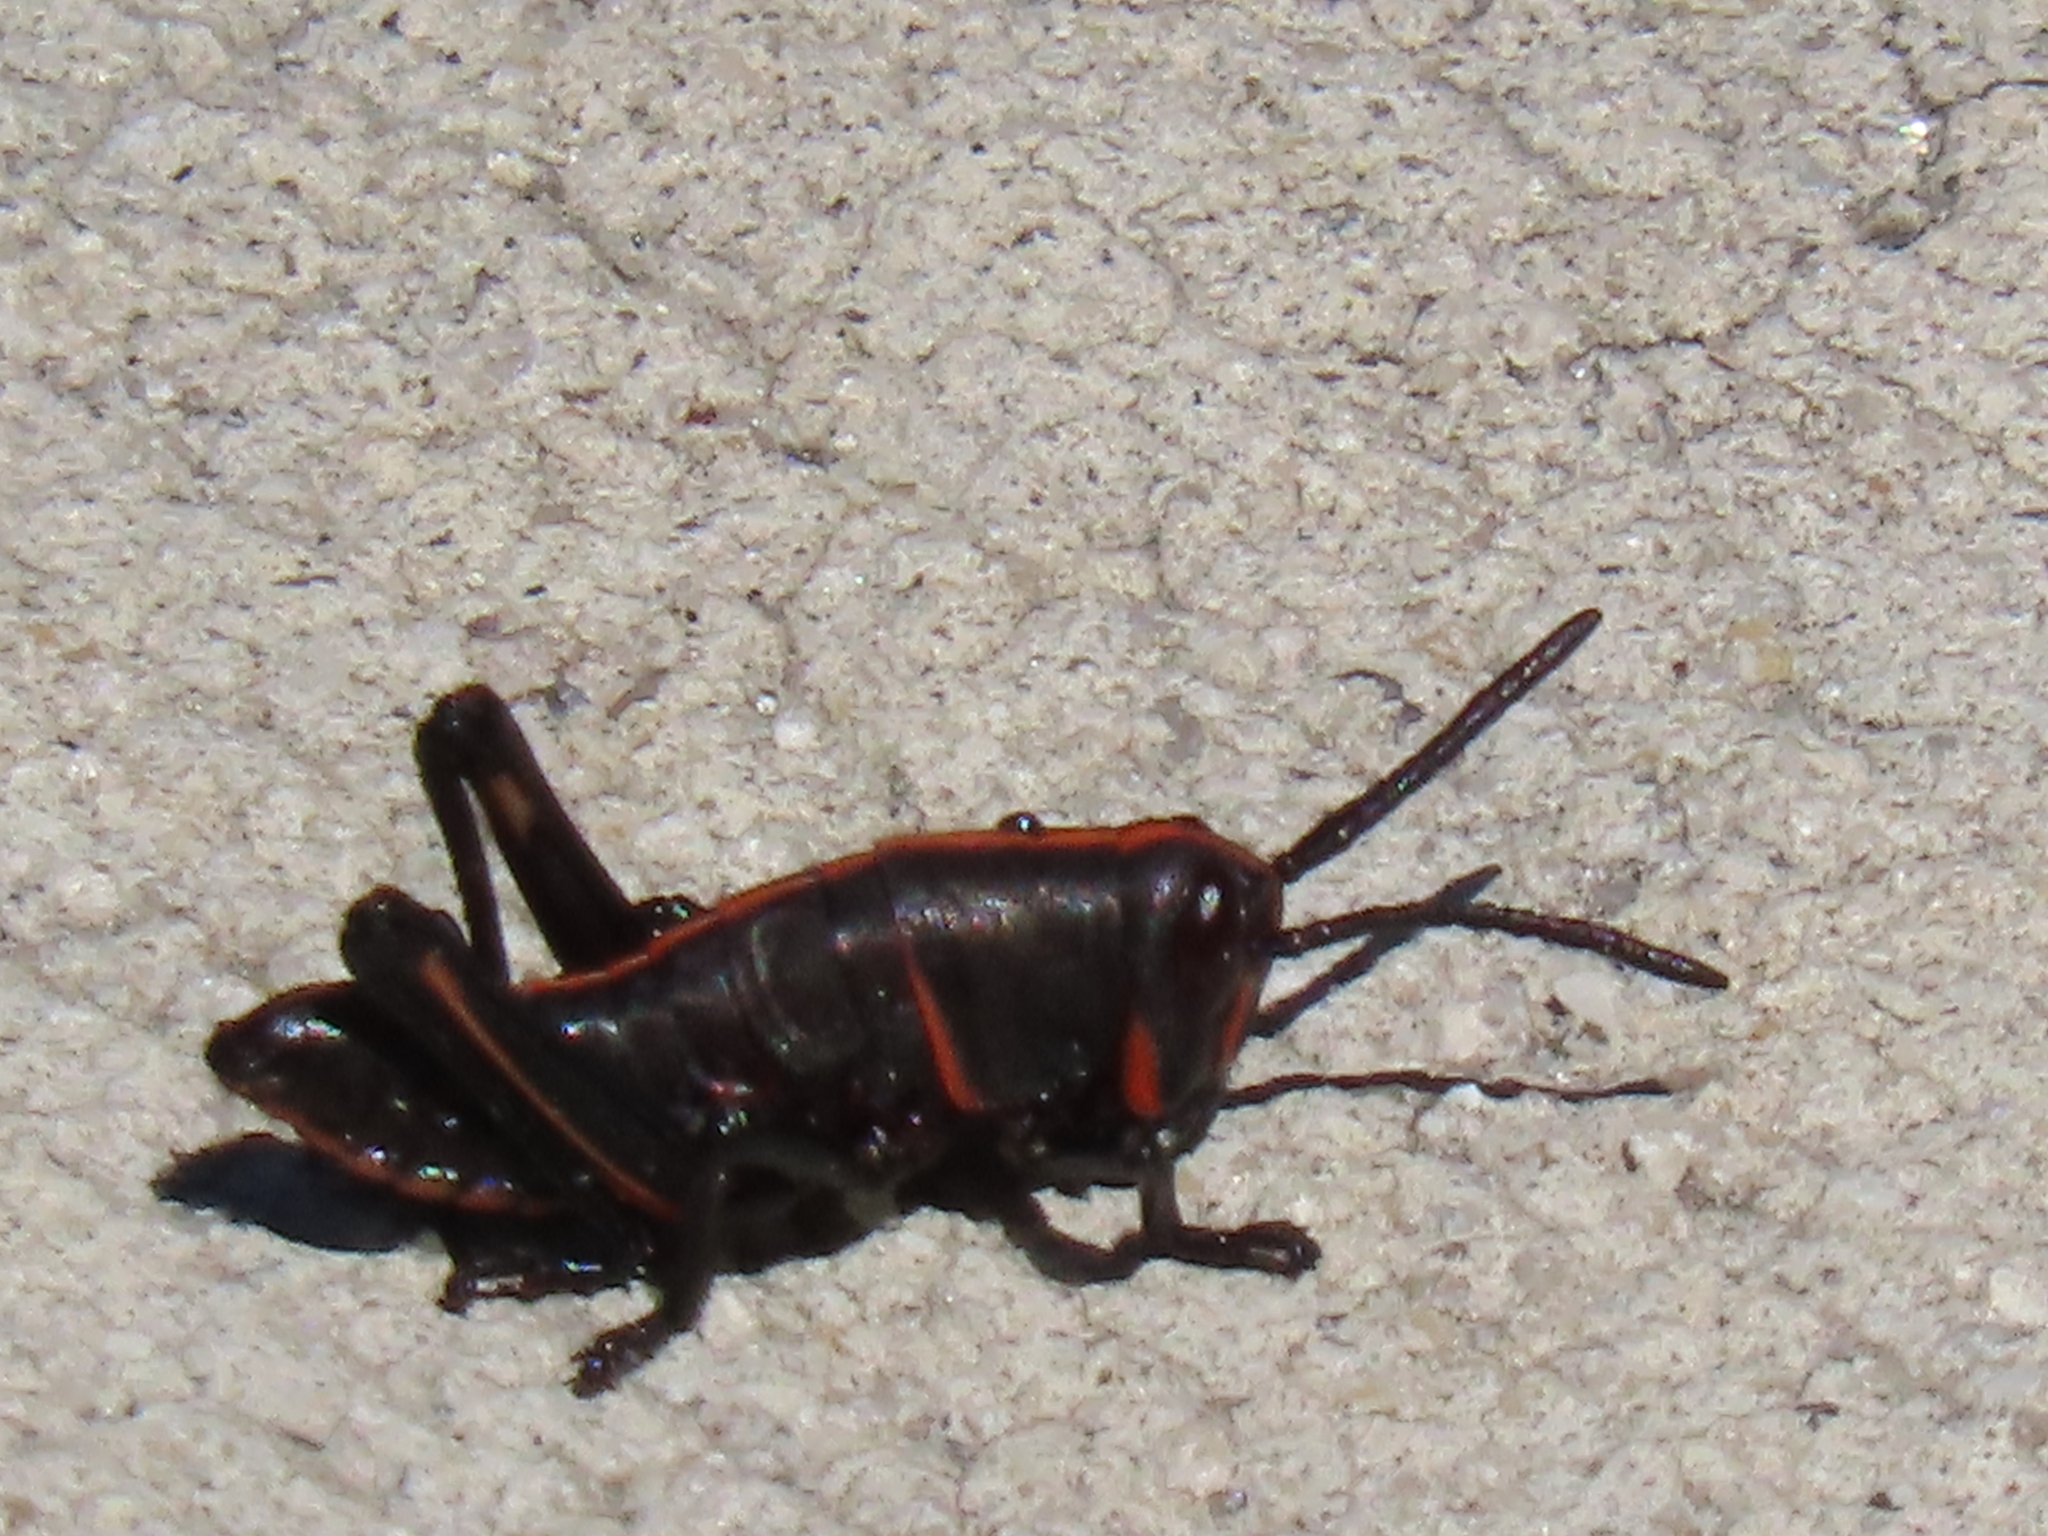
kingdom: Animalia
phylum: Arthropoda
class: Insecta
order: Orthoptera
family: Romaleidae
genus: Romalea
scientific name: Romalea microptera
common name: Eastern lubber grasshopper
